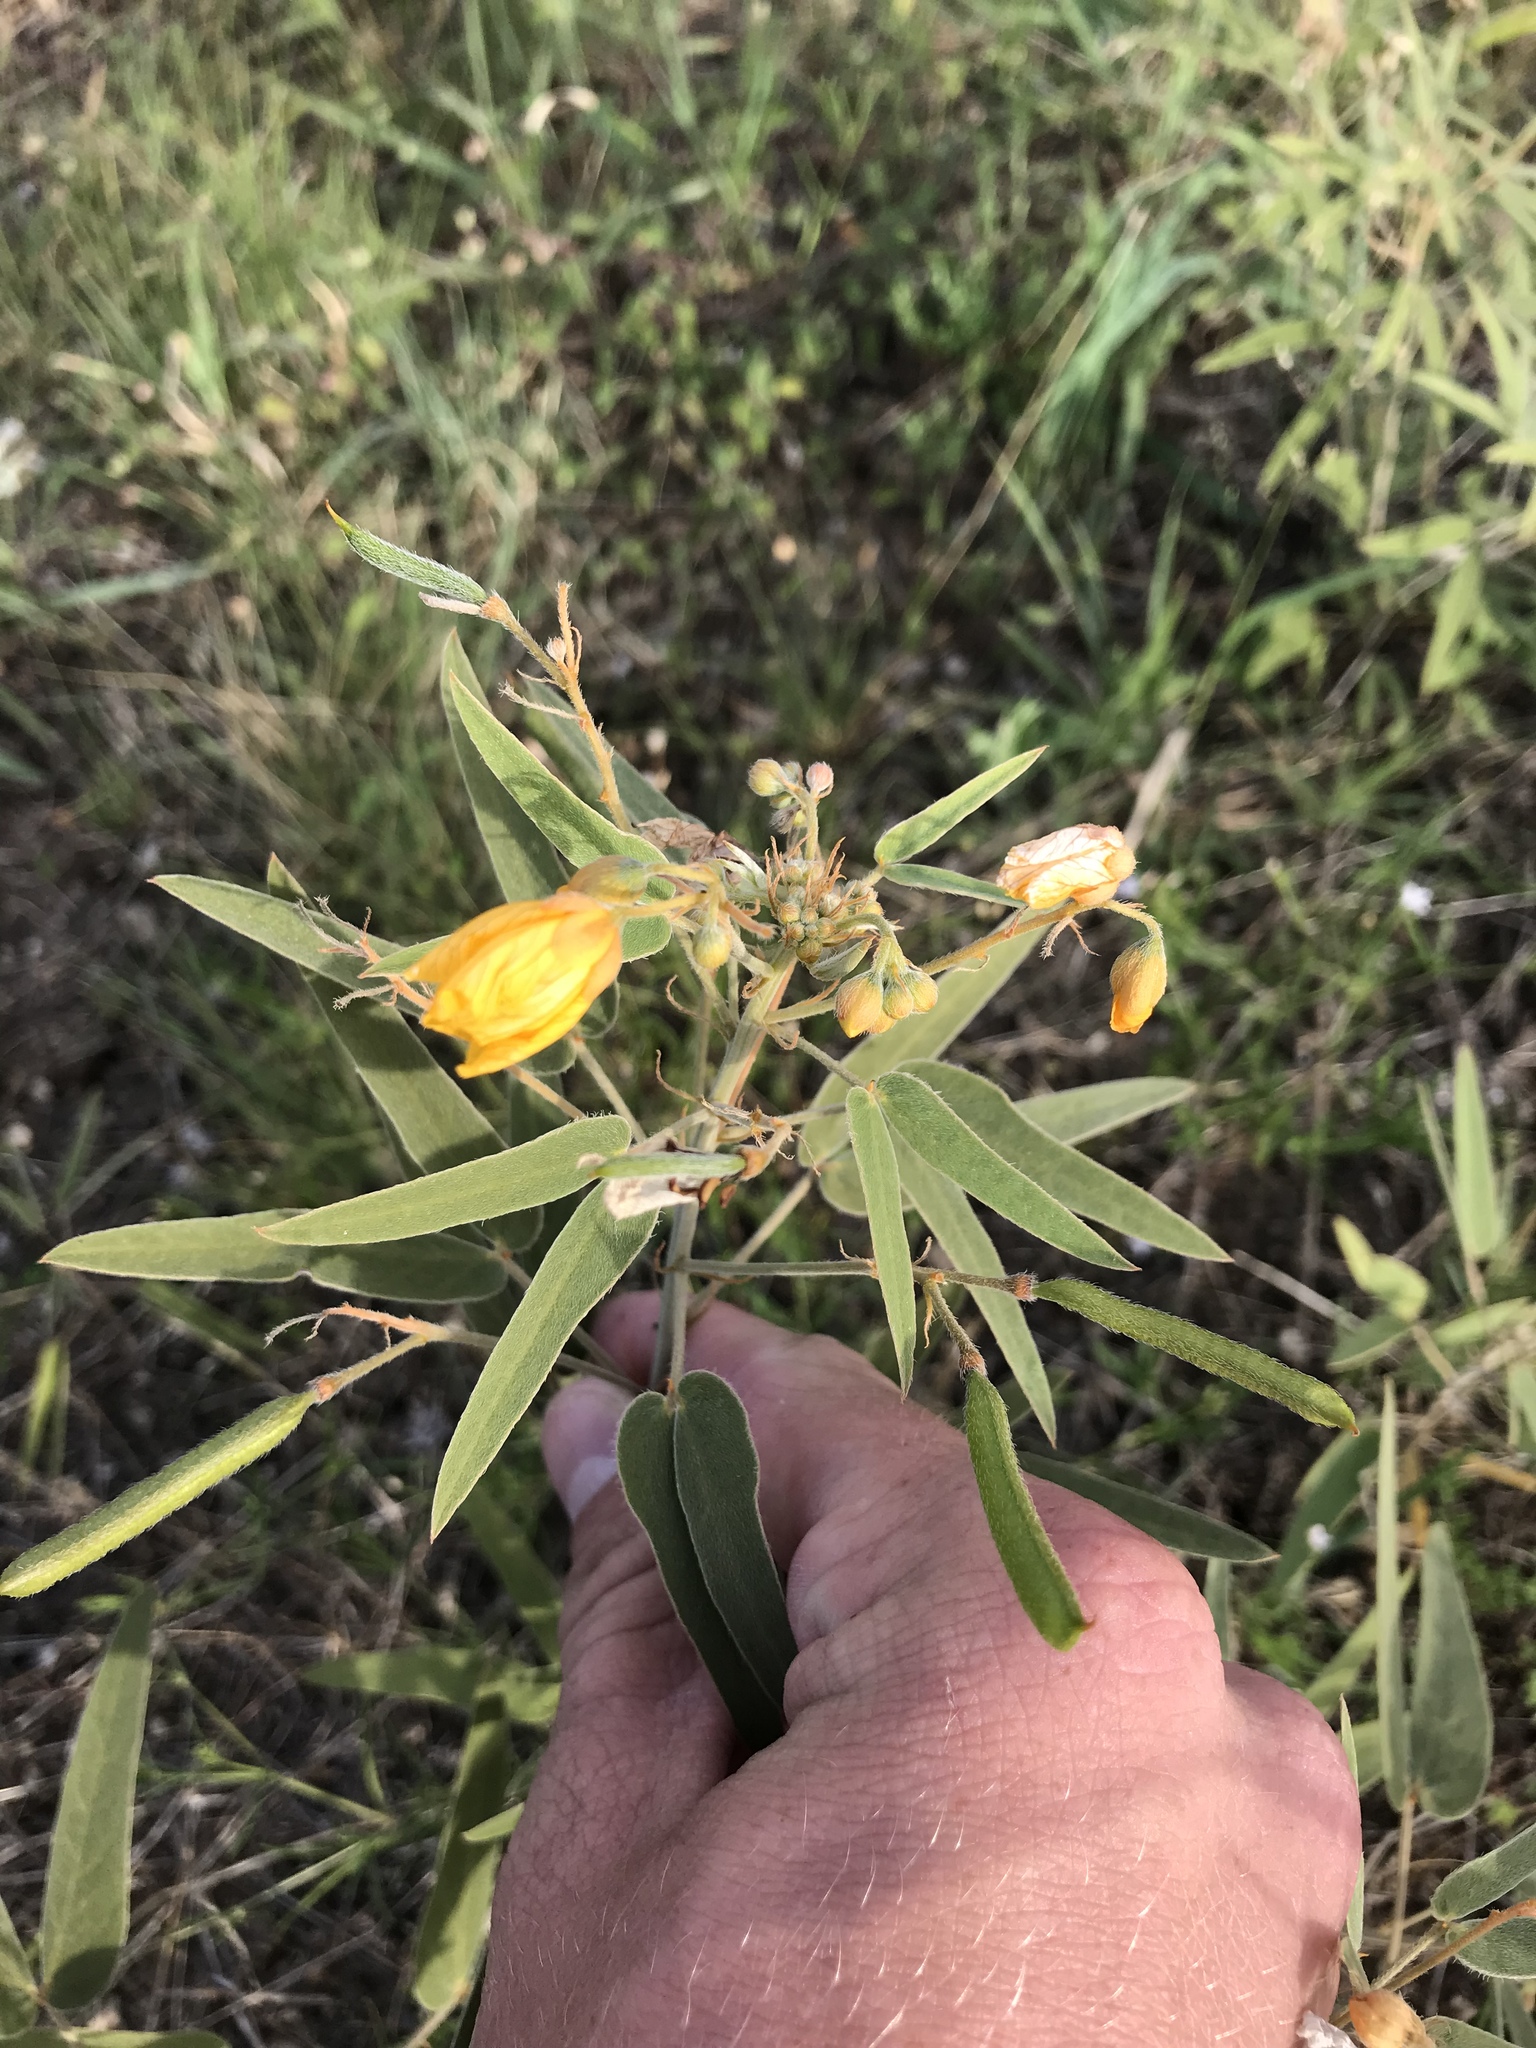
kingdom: Plantae
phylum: Tracheophyta
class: Magnoliopsida
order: Fabales
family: Fabaceae
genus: Senna
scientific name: Senna roemeriana
